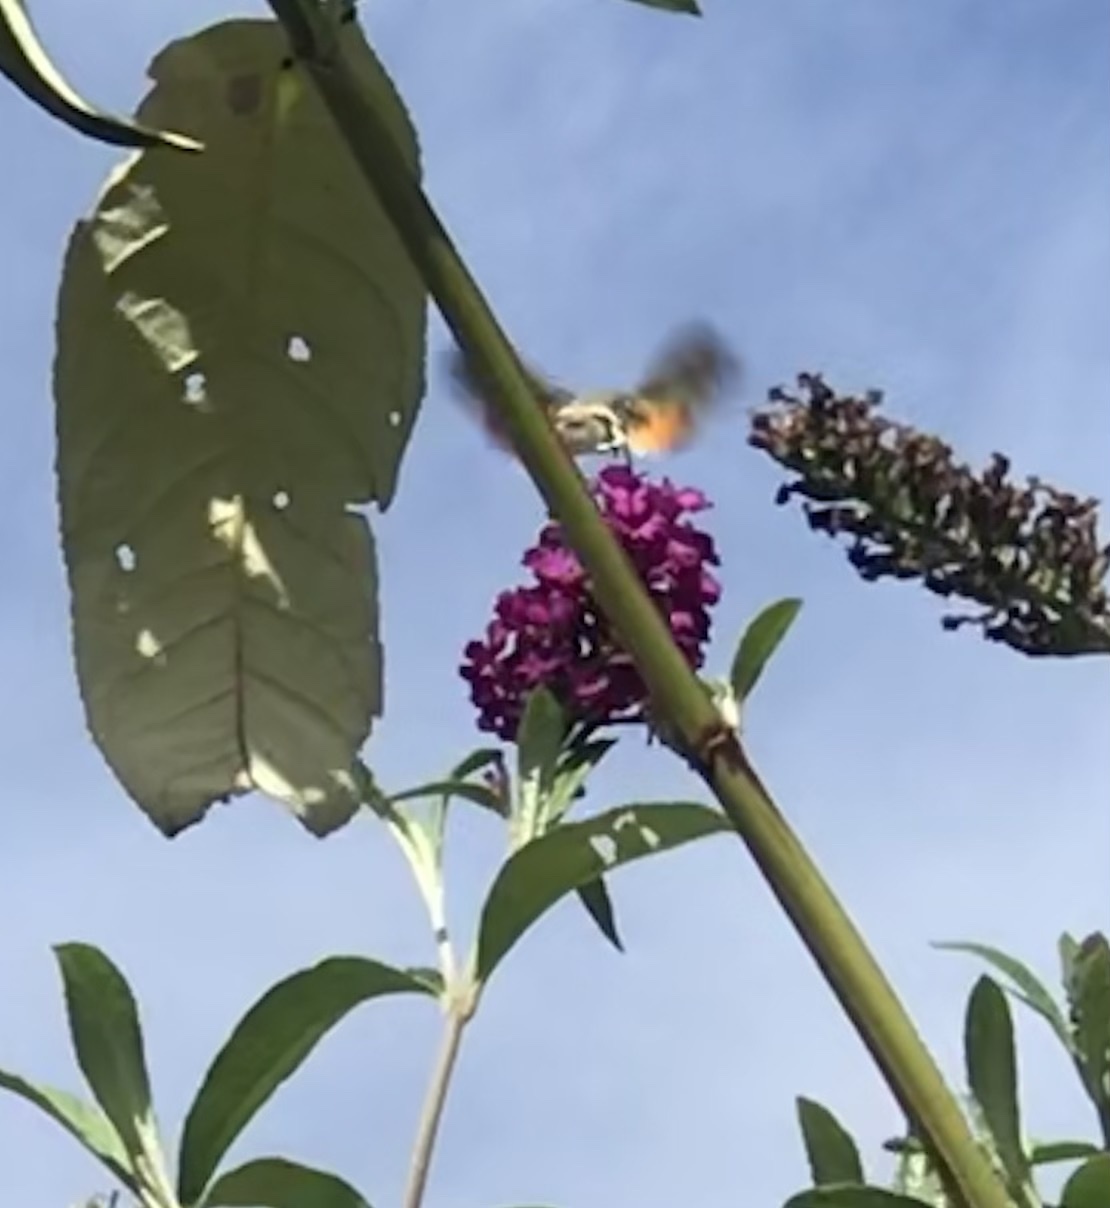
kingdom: Animalia
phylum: Arthropoda
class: Insecta
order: Lepidoptera
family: Sphingidae
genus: Macroglossum
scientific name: Macroglossum stellatarum
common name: Humming-bird hawk-moth
